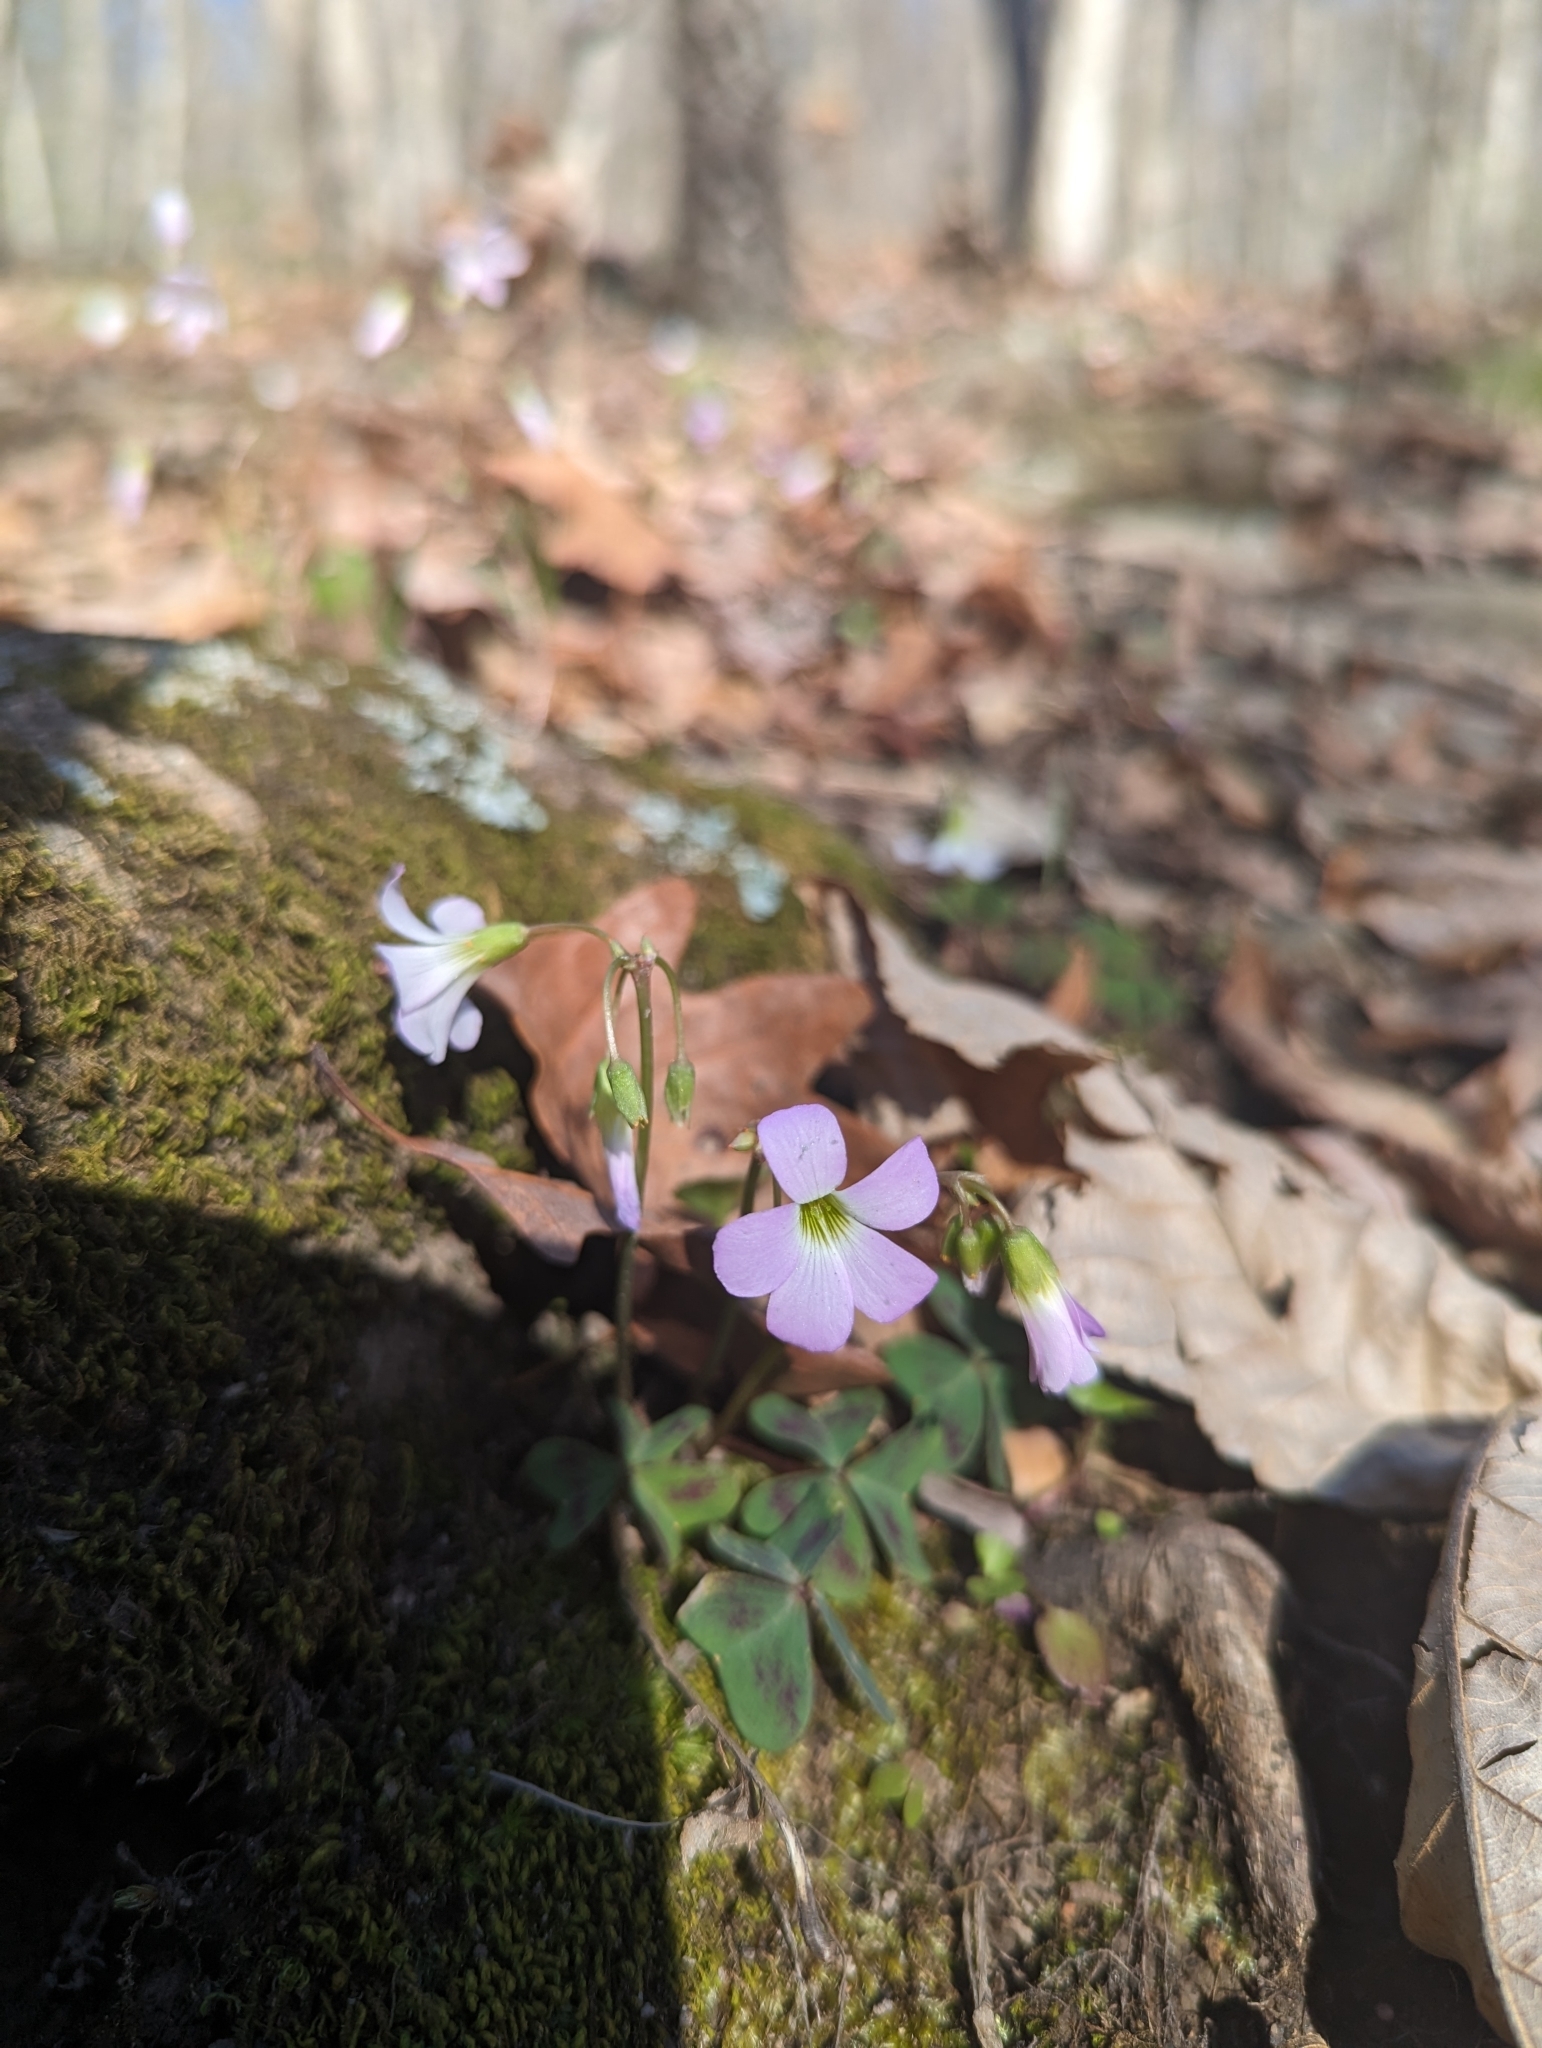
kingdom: Plantae
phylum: Tracheophyta
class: Magnoliopsida
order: Oxalidales
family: Oxalidaceae
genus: Oxalis
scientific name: Oxalis violacea
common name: Violet wood-sorrel
